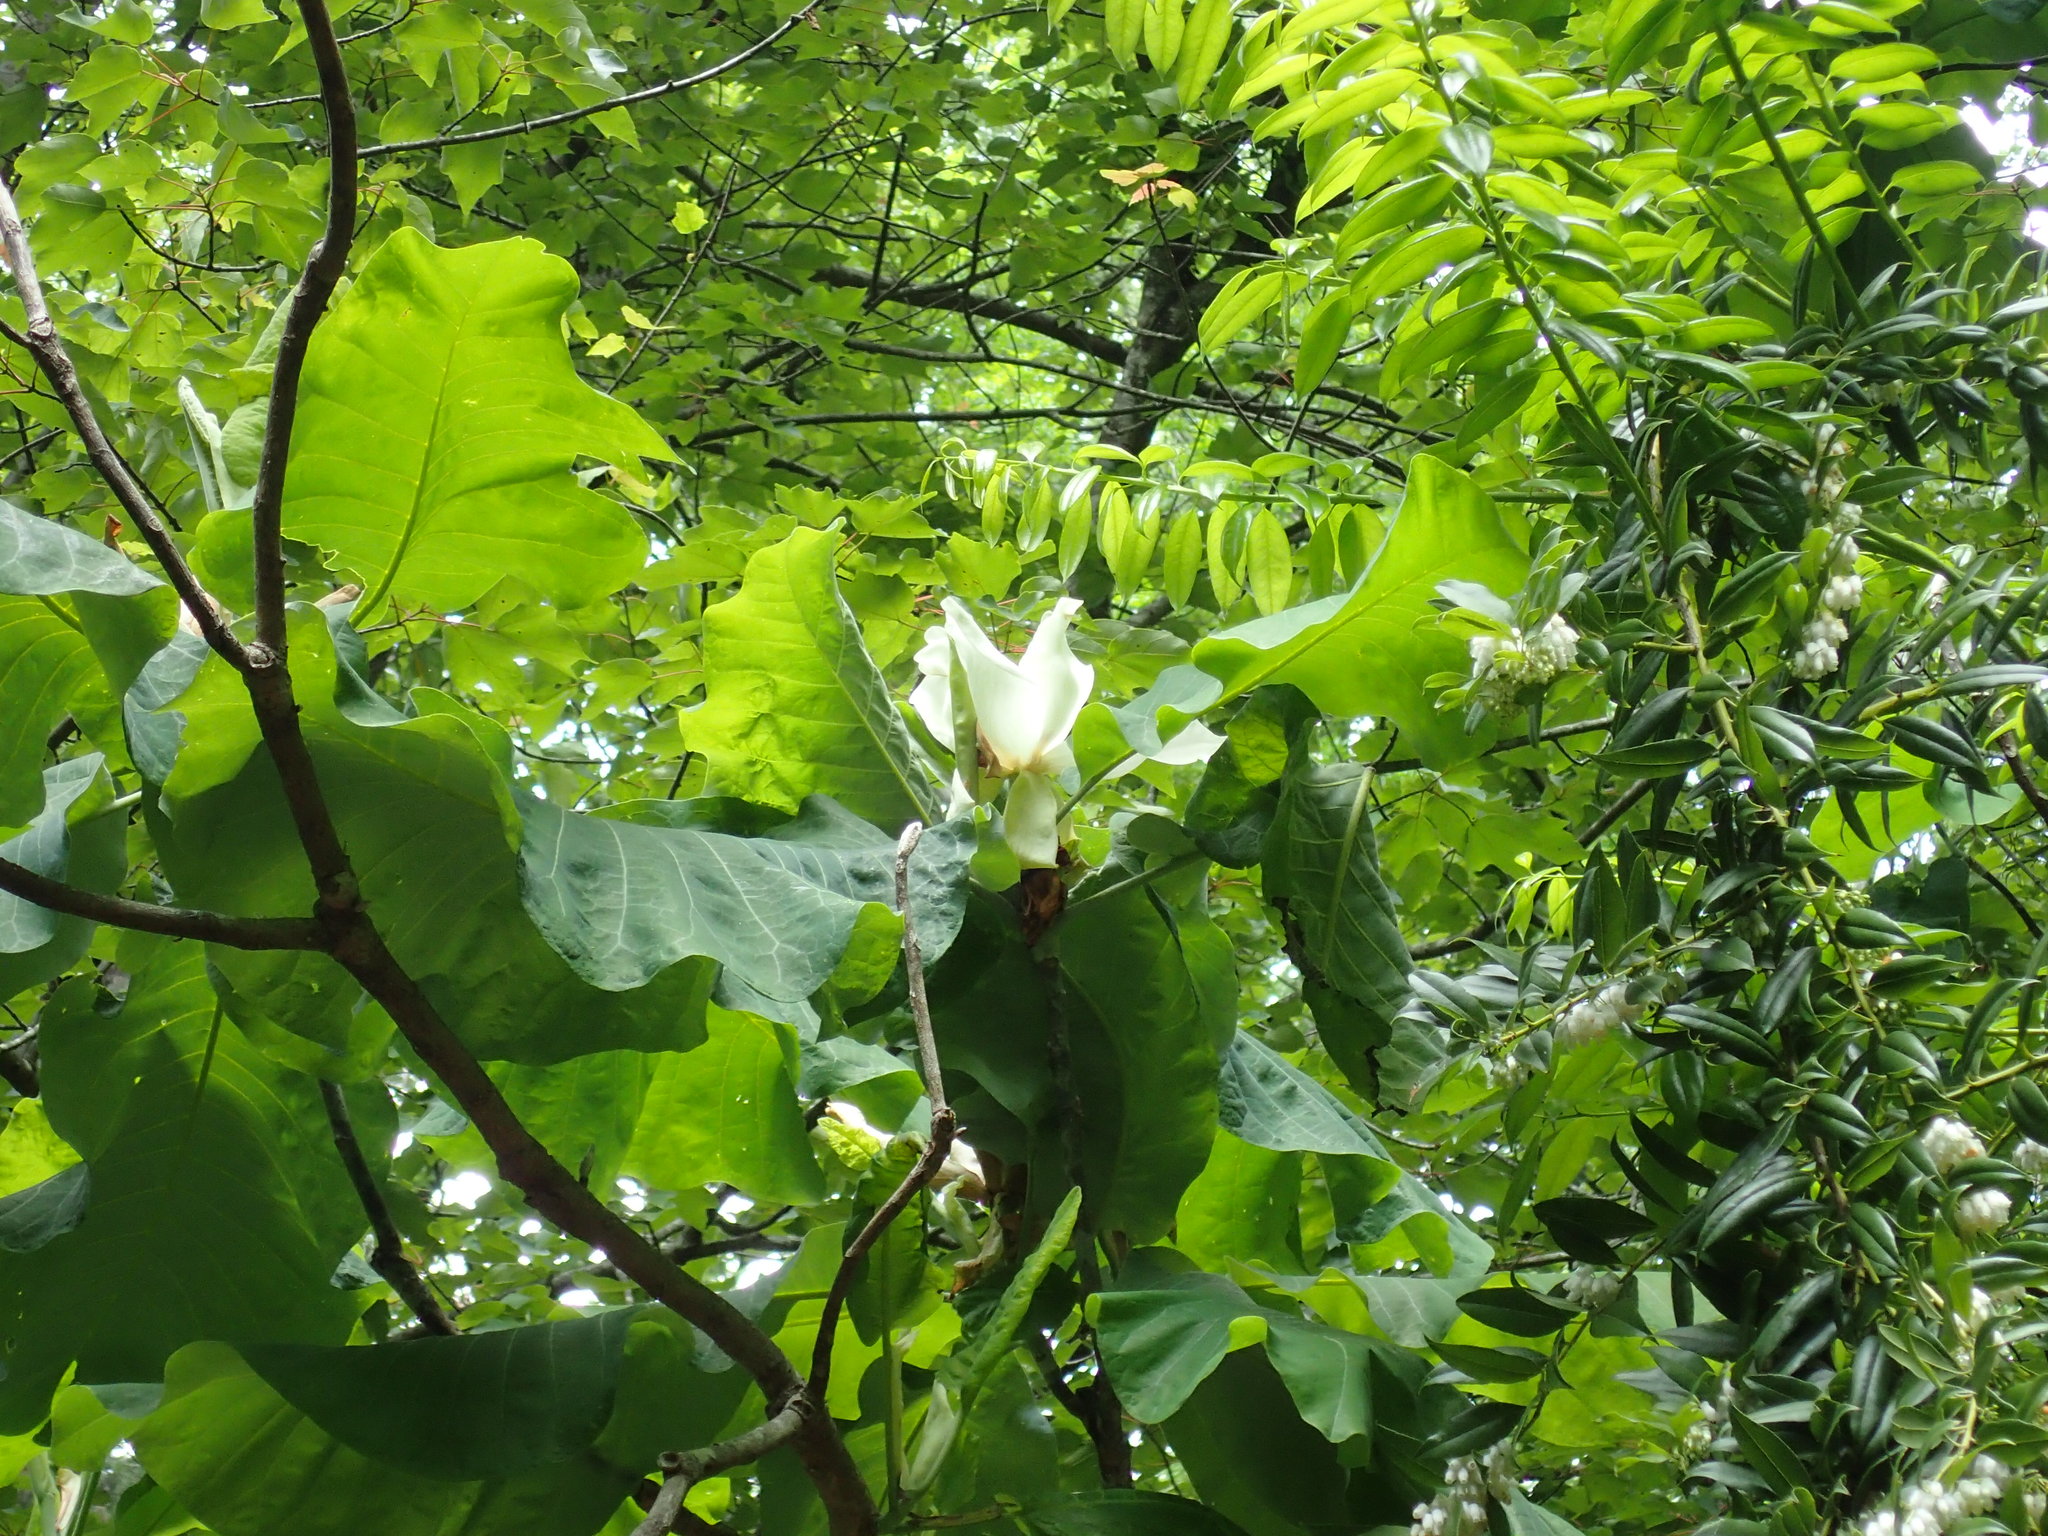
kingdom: Plantae
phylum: Tracheophyta
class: Magnoliopsida
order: Magnoliales
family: Magnoliaceae
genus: Magnolia
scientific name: Magnolia macrophylla
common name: Big-leaf magnolia
